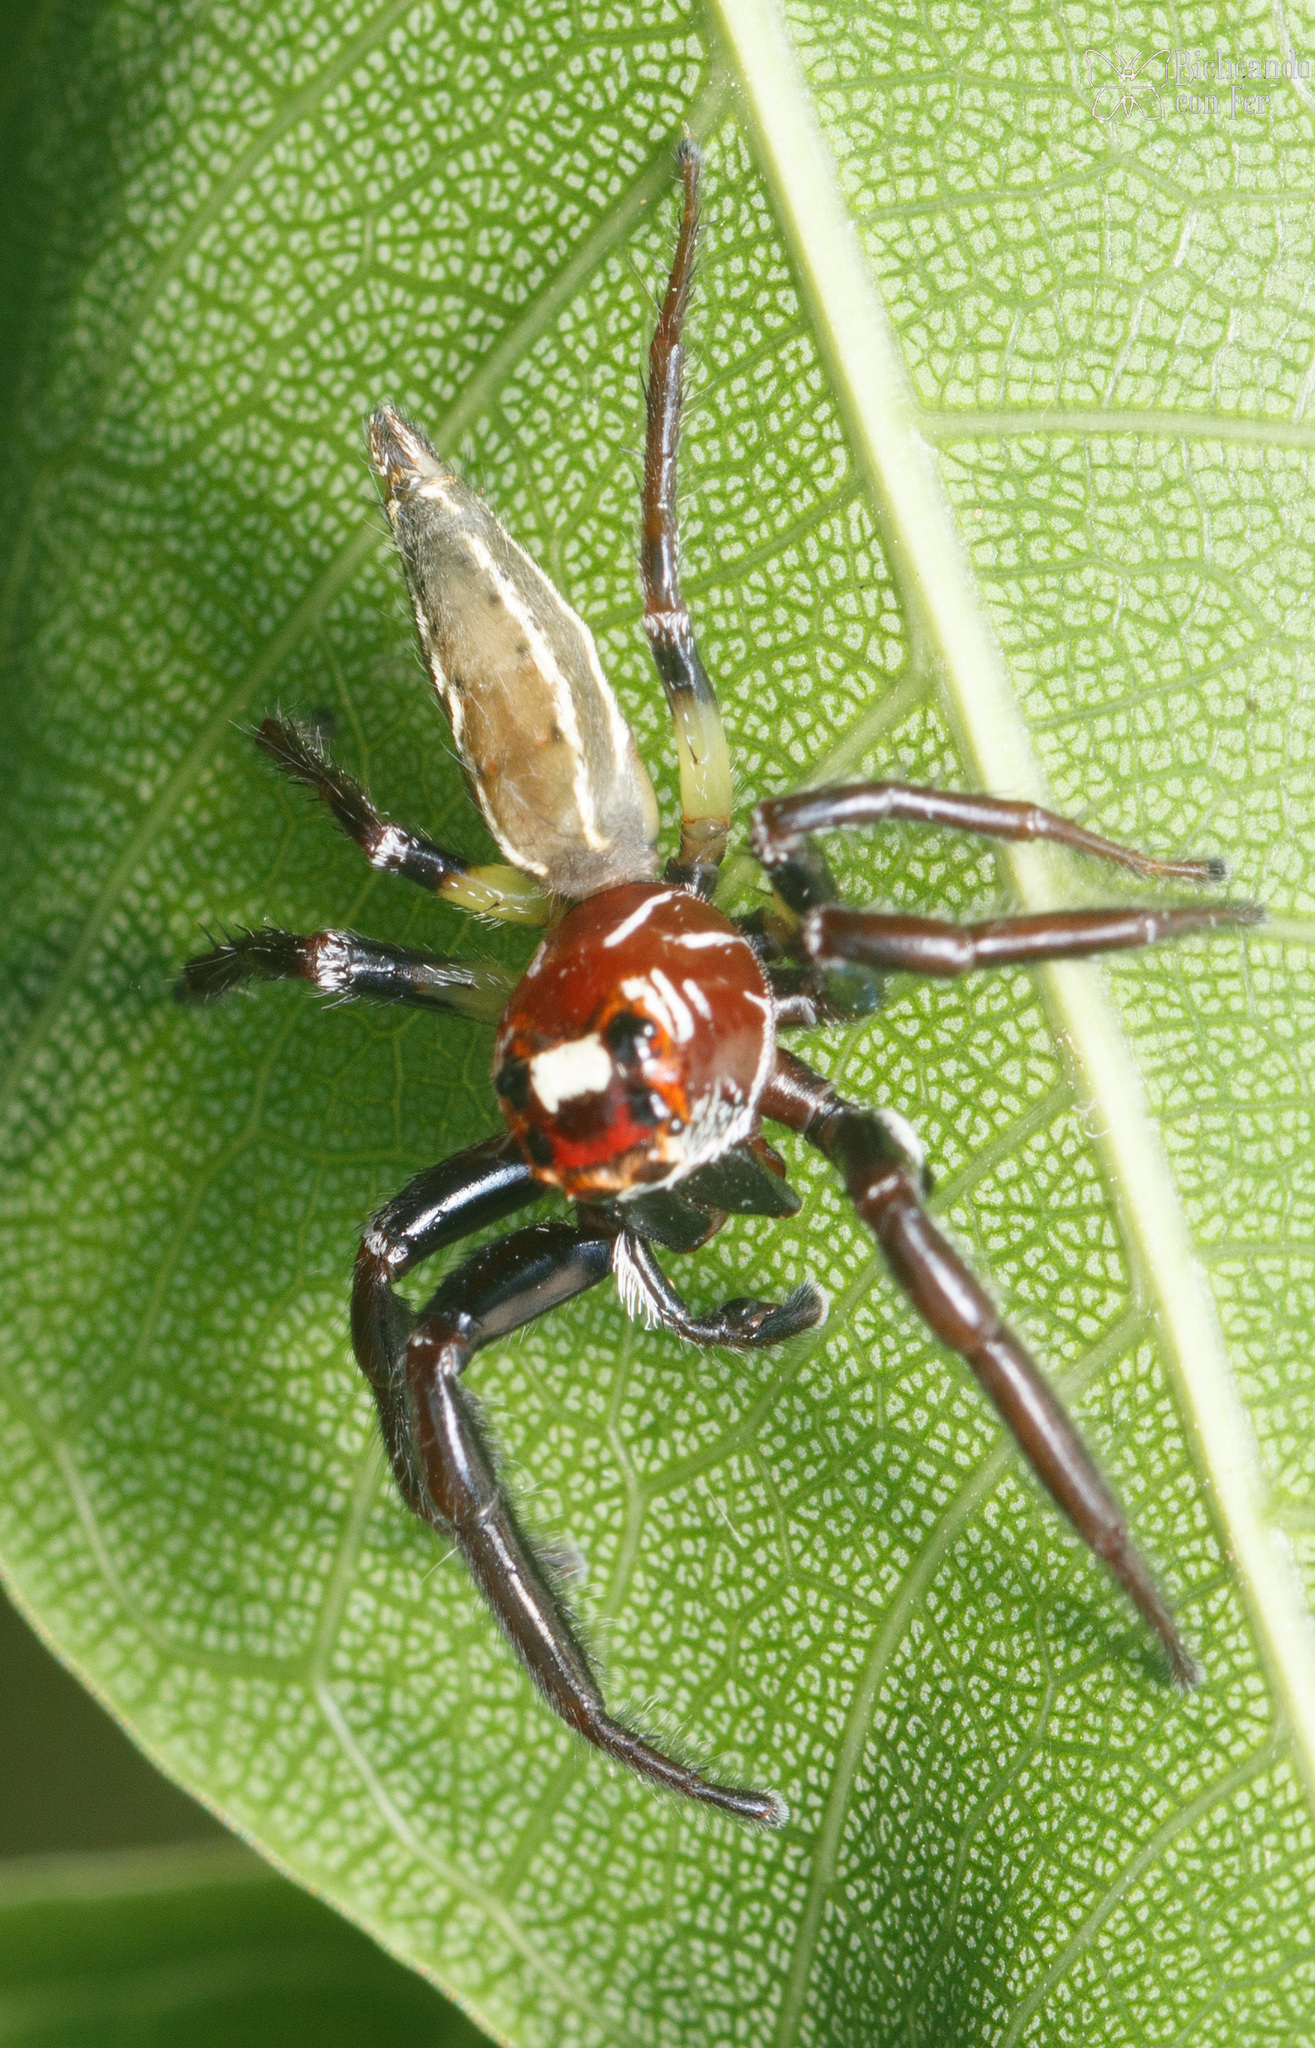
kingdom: Animalia
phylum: Arthropoda
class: Arachnida
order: Araneae
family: Salticidae
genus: Colonus
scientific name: Colonus sylvanus
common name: Jumping spiders
